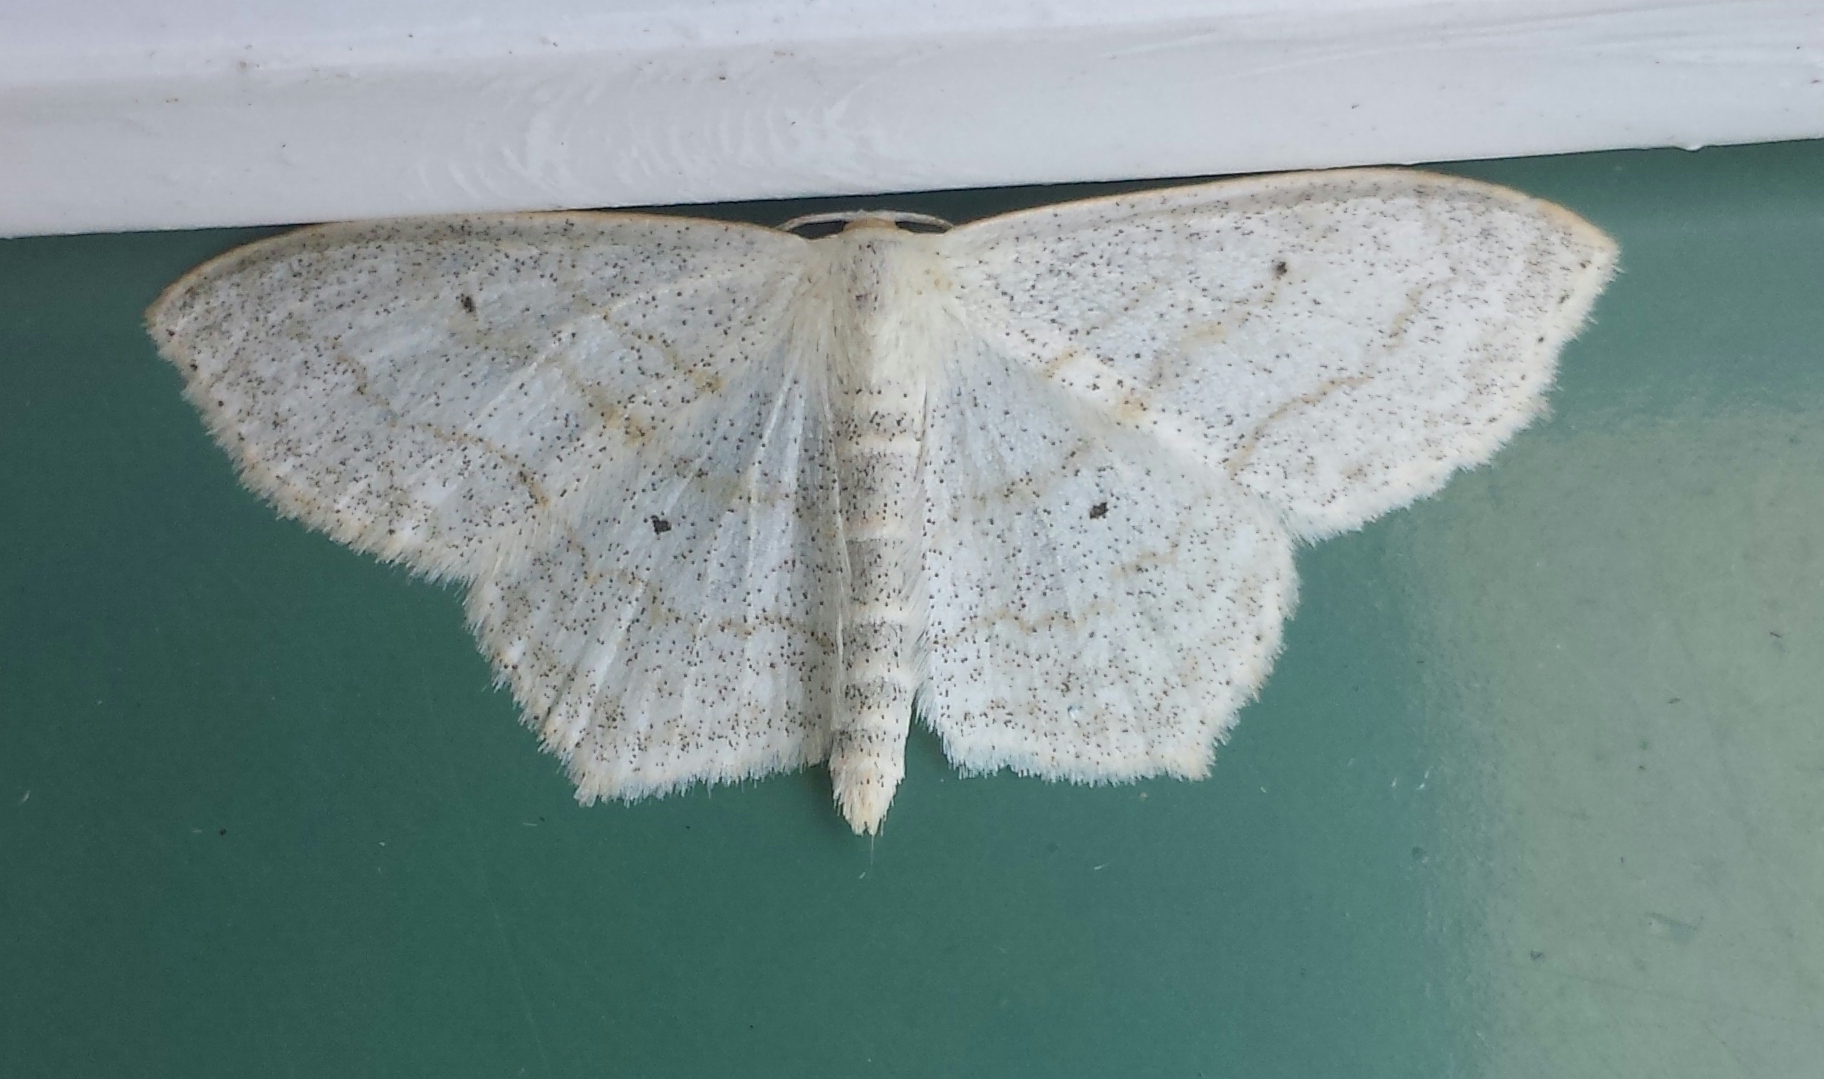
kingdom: Animalia
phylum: Arthropoda
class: Insecta
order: Lepidoptera
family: Geometridae
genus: Scopula
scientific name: Scopula limboundata
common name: Large lace border
